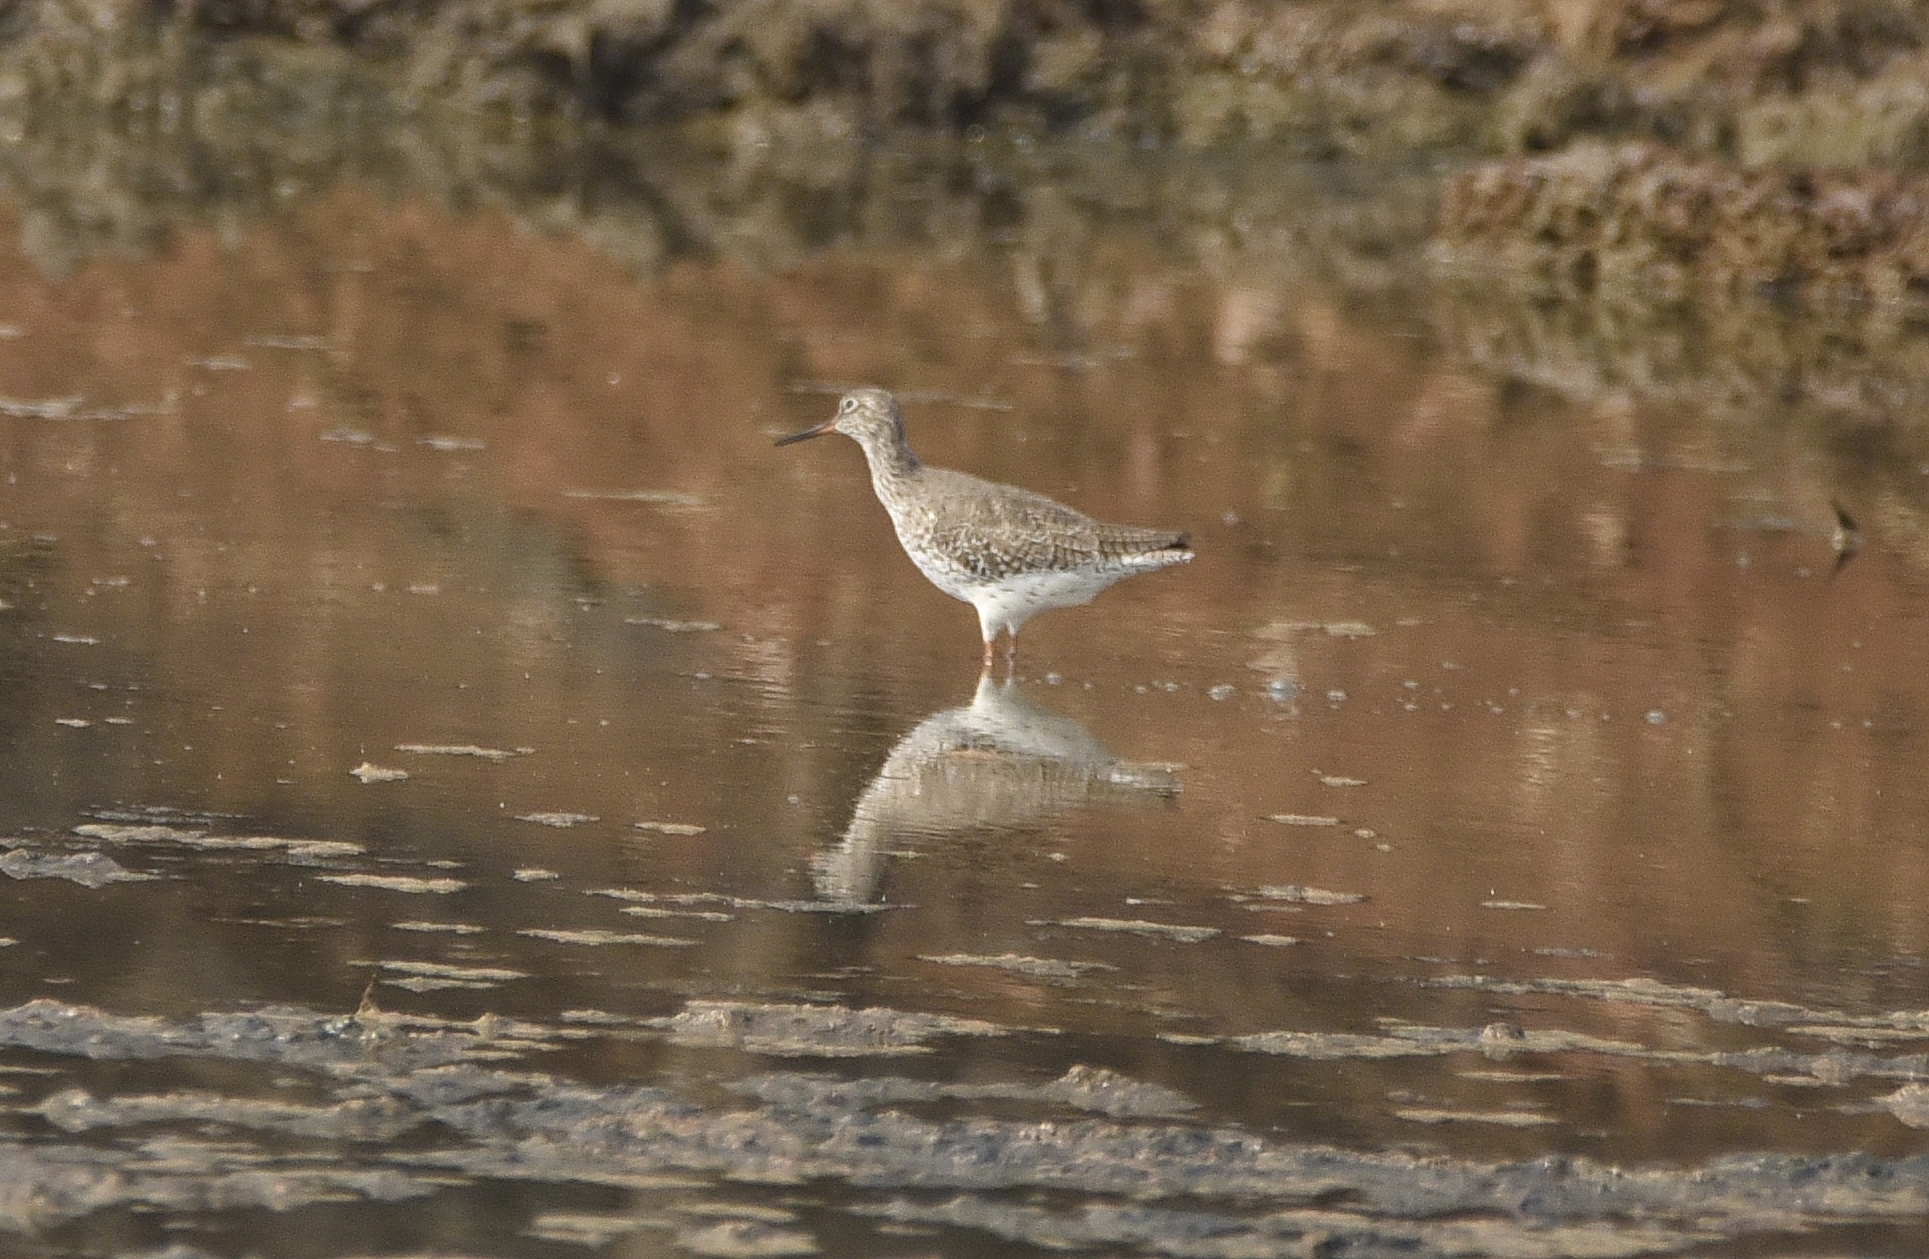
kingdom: Animalia
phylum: Chordata
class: Aves
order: Charadriiformes
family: Scolopacidae
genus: Tringa
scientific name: Tringa totanus
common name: Common redshank
